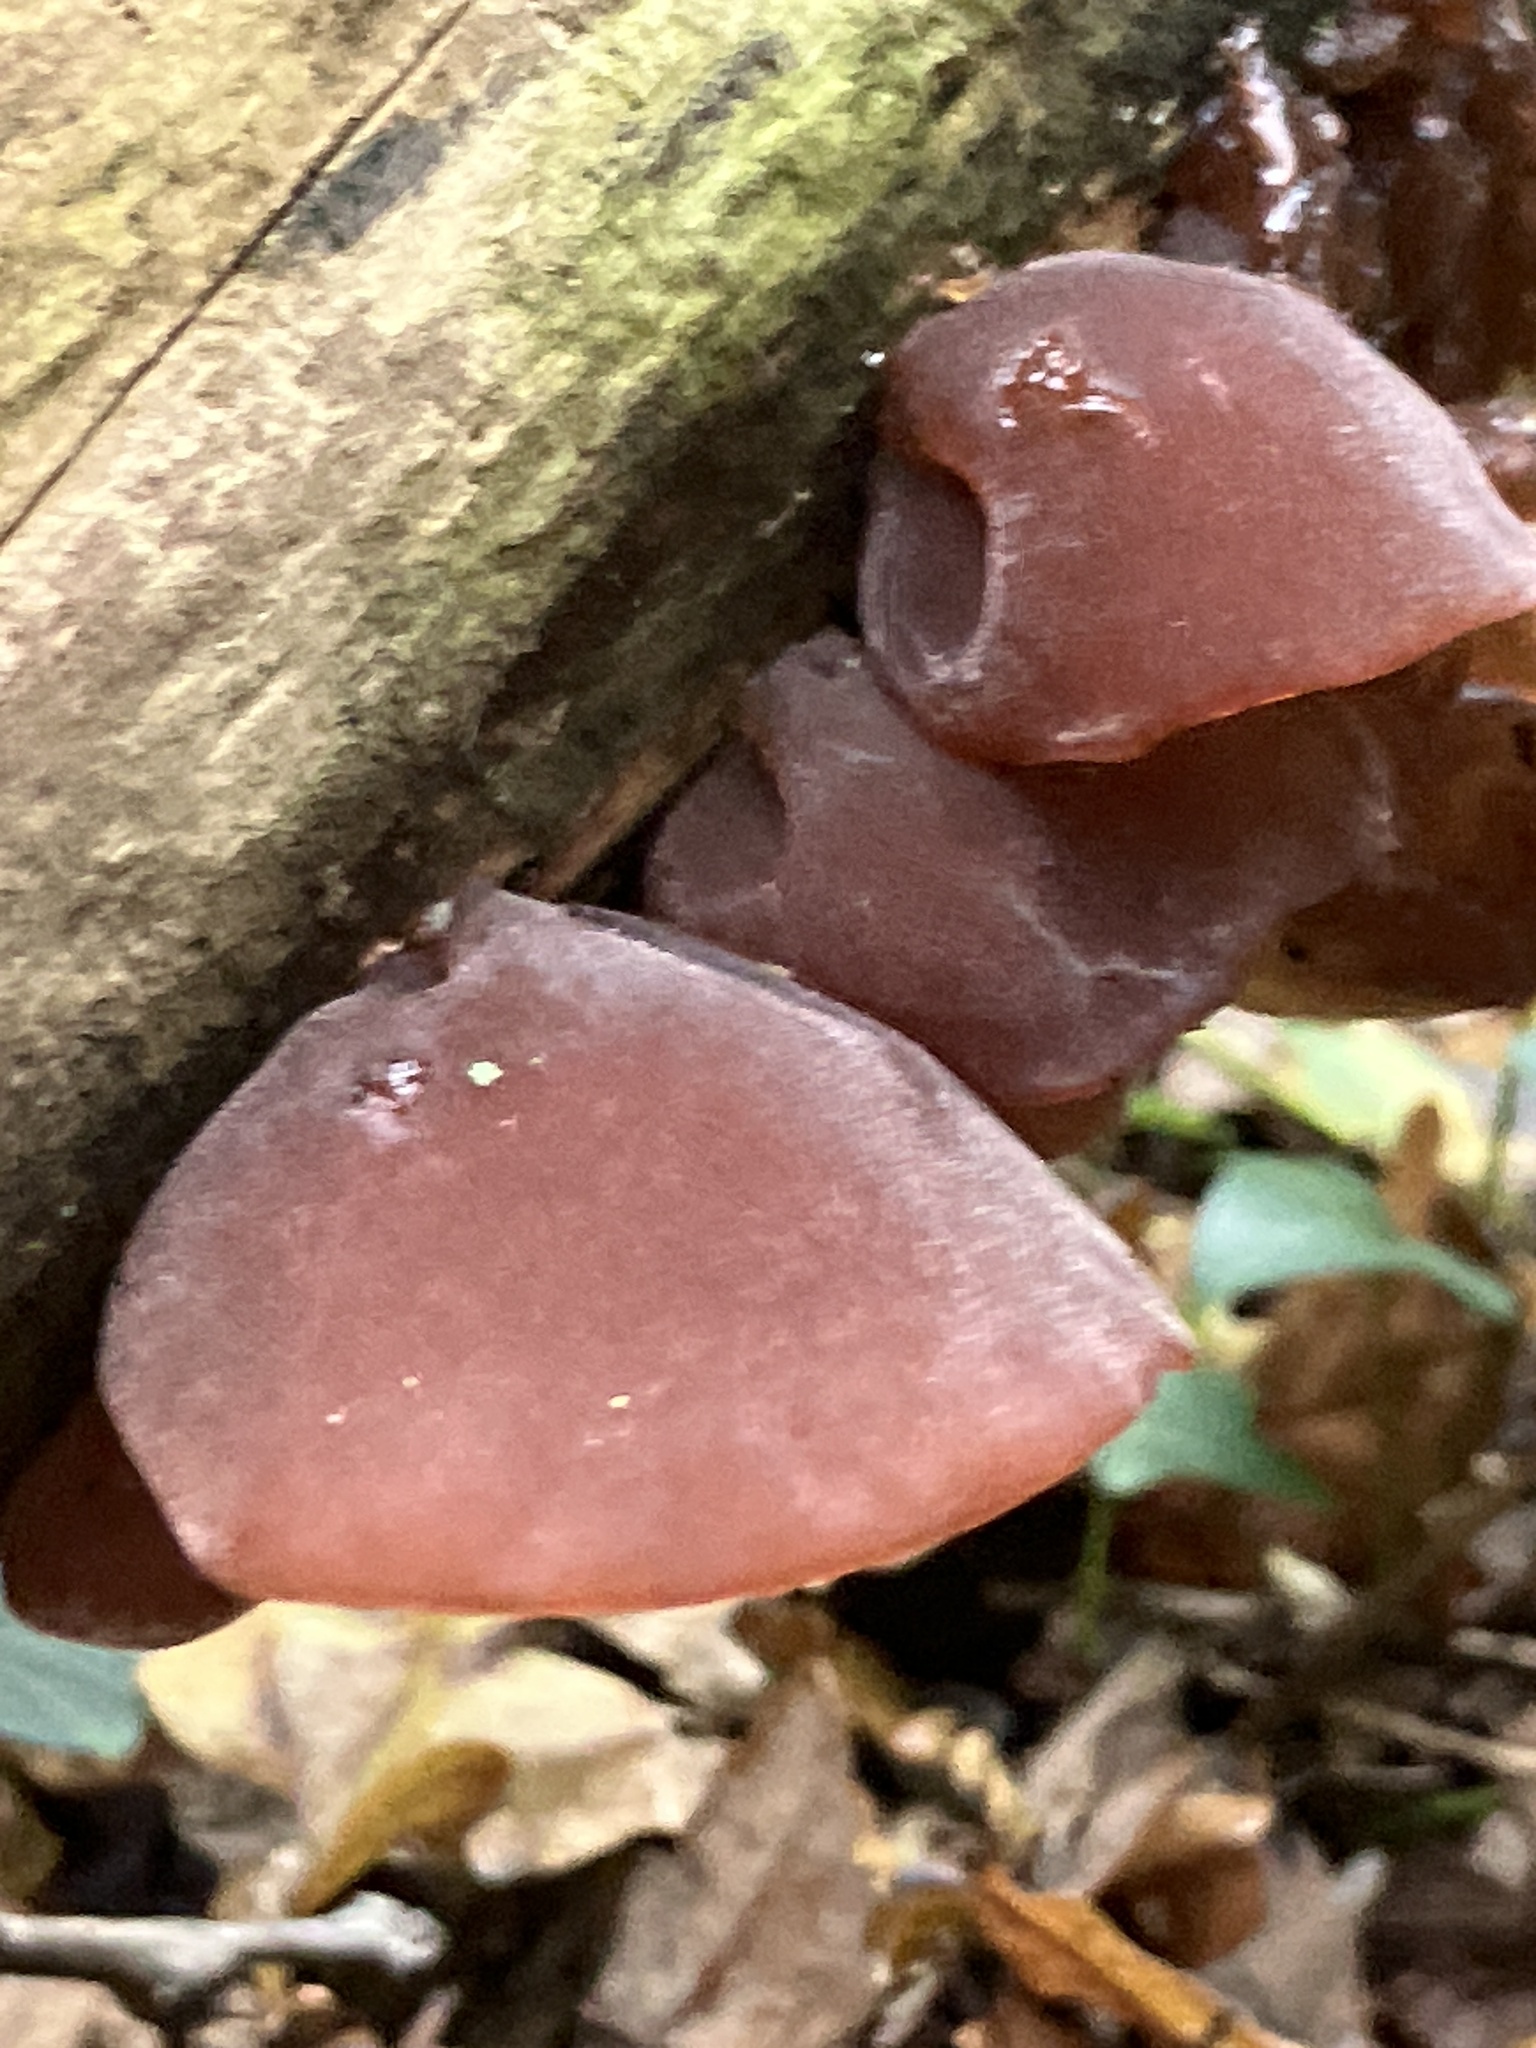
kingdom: Fungi
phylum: Basidiomycota
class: Agaricomycetes
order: Auriculariales
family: Auriculariaceae
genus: Auricularia
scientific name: Auricularia auricula-judae
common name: Jelly ear
